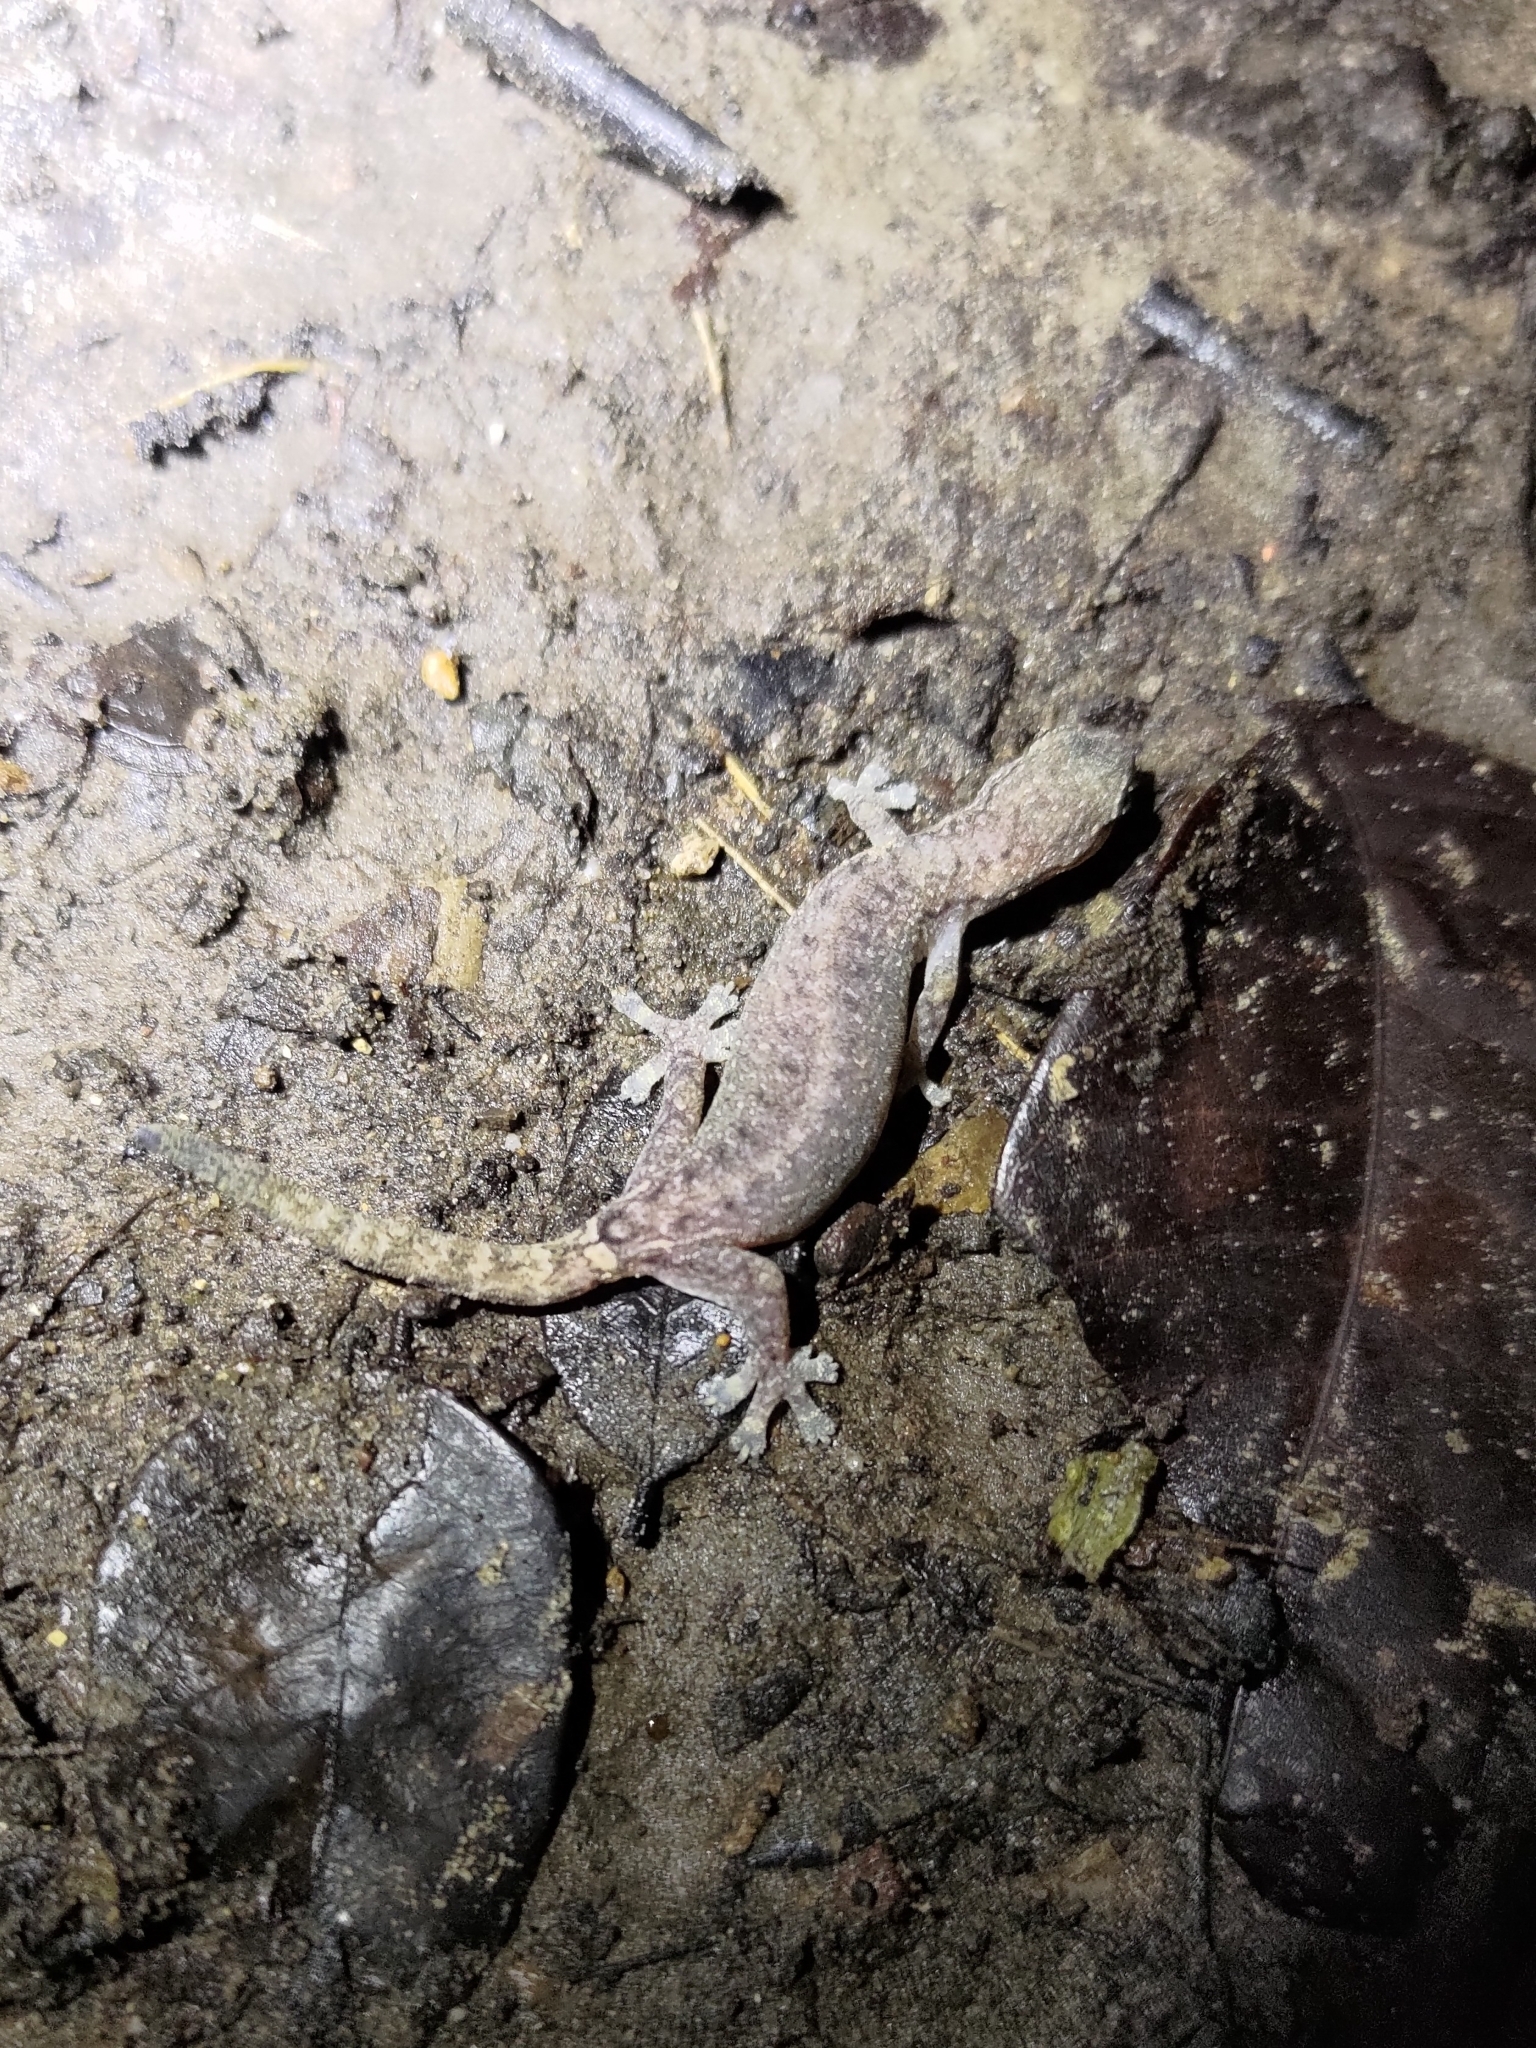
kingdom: Animalia
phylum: Chordata
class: Squamata
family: Gekkonidae
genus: Hemiphyllodactylus
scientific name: Hemiphyllodactylus typus
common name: Common dwarf gecko
